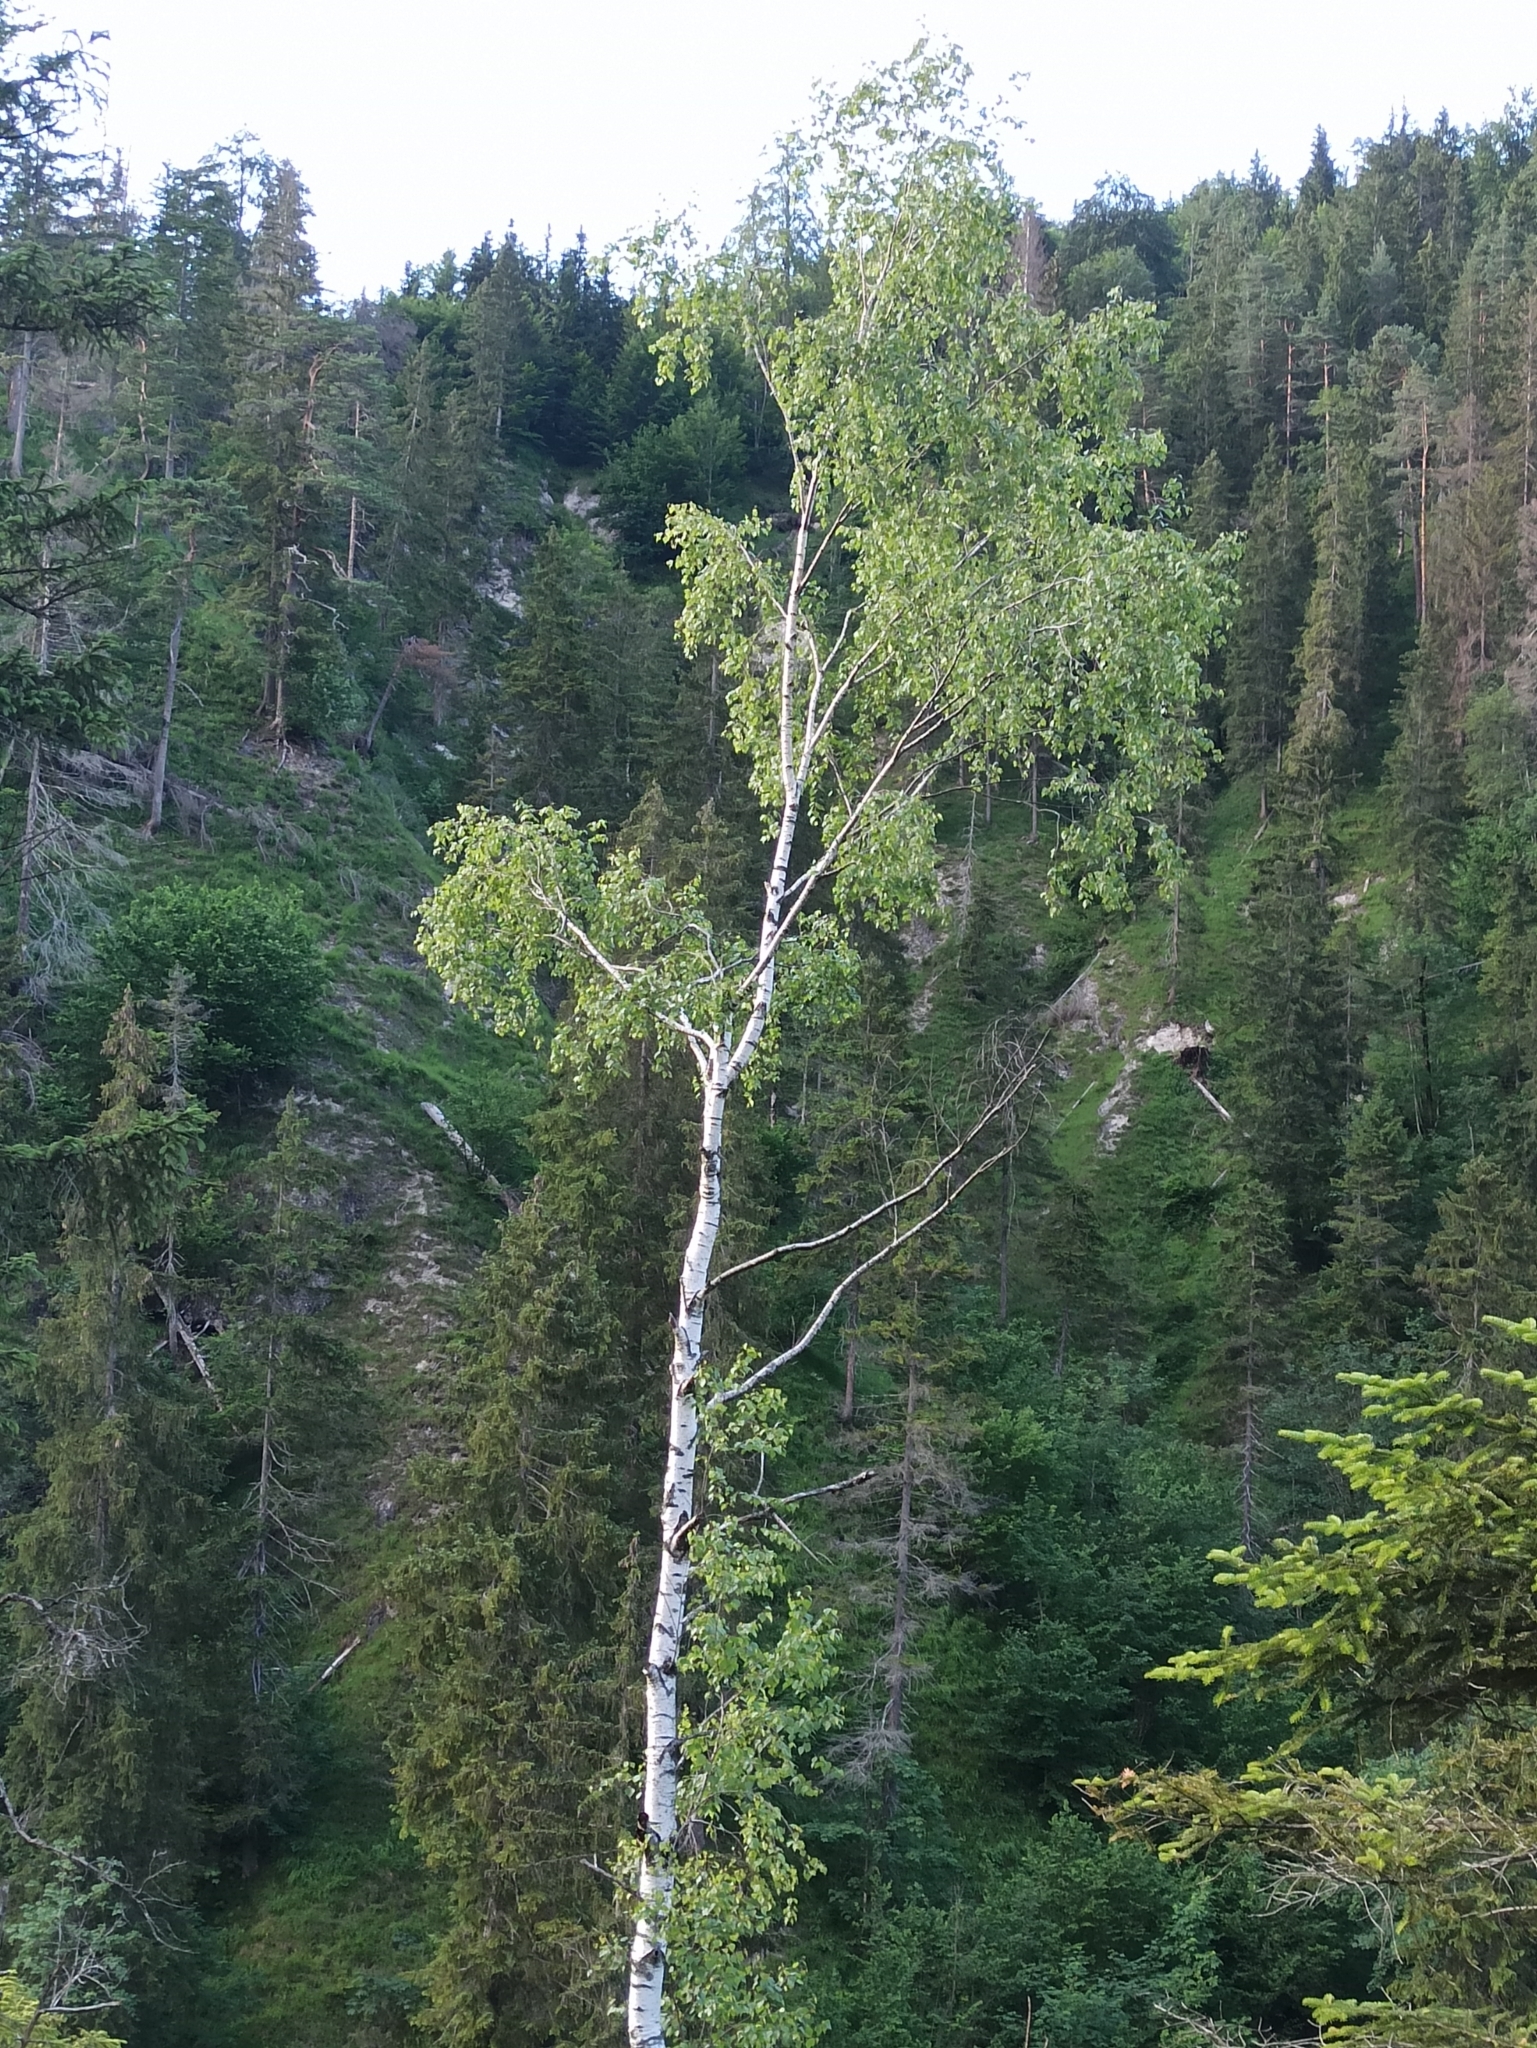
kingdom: Plantae
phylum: Tracheophyta
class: Magnoliopsida
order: Fagales
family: Betulaceae
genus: Betula
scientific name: Betula pendula
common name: Silver birch
